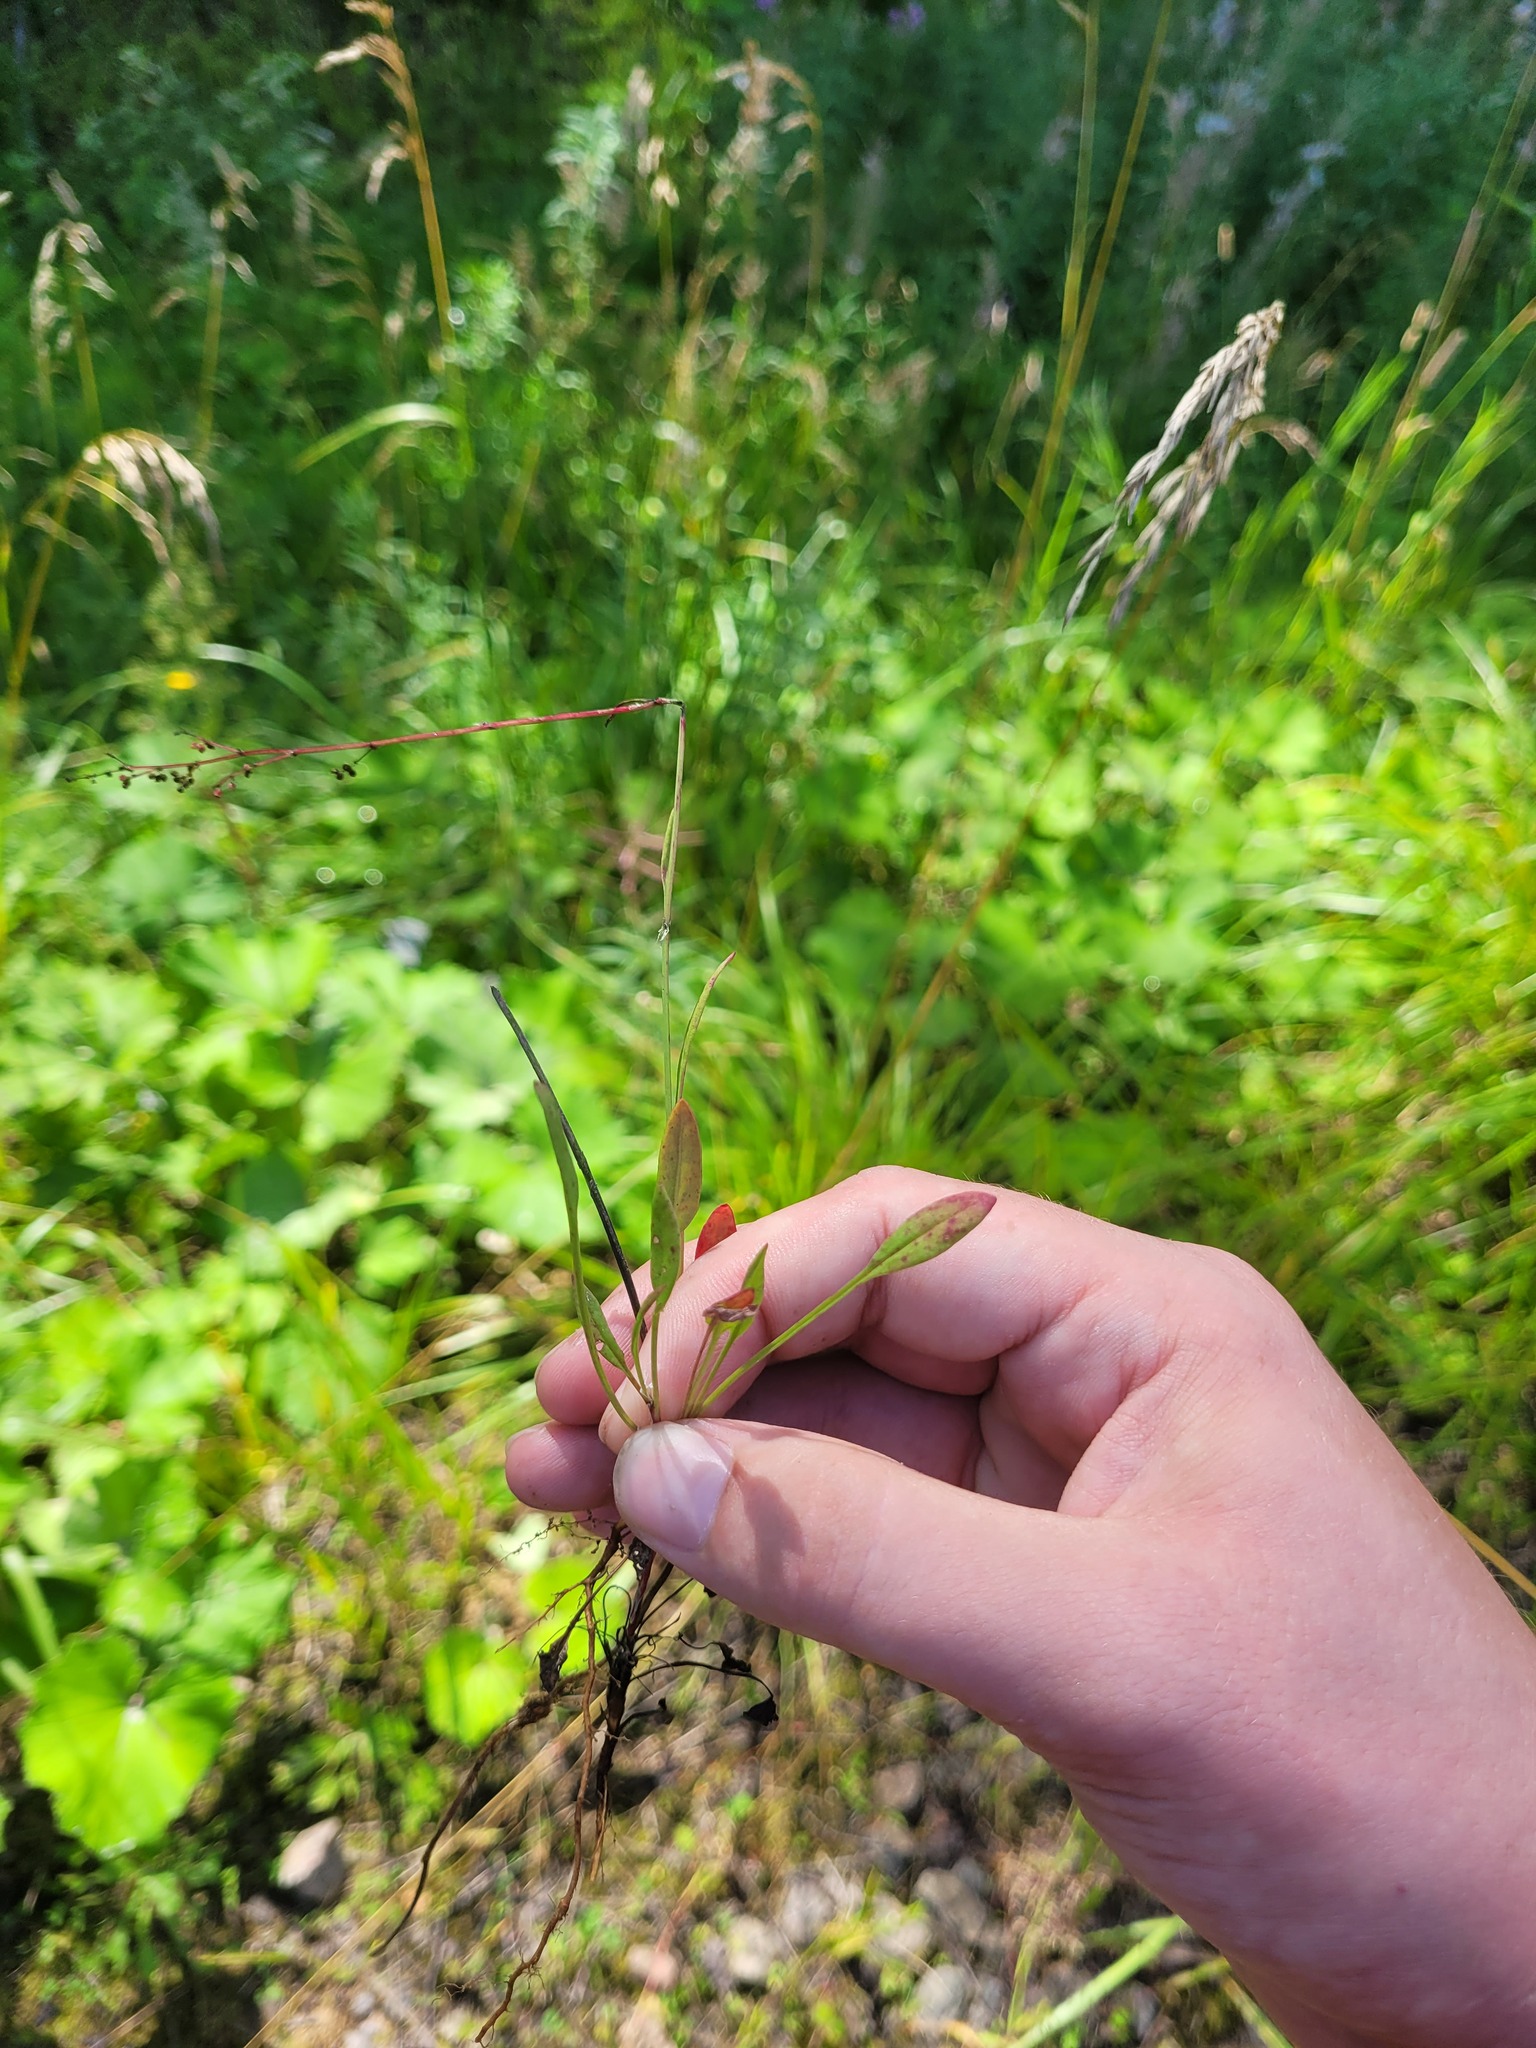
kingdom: Plantae
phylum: Tracheophyta
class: Magnoliopsida
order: Caryophyllales
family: Polygonaceae
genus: Rumex
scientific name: Rumex acetosella
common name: Common sheep sorrel
